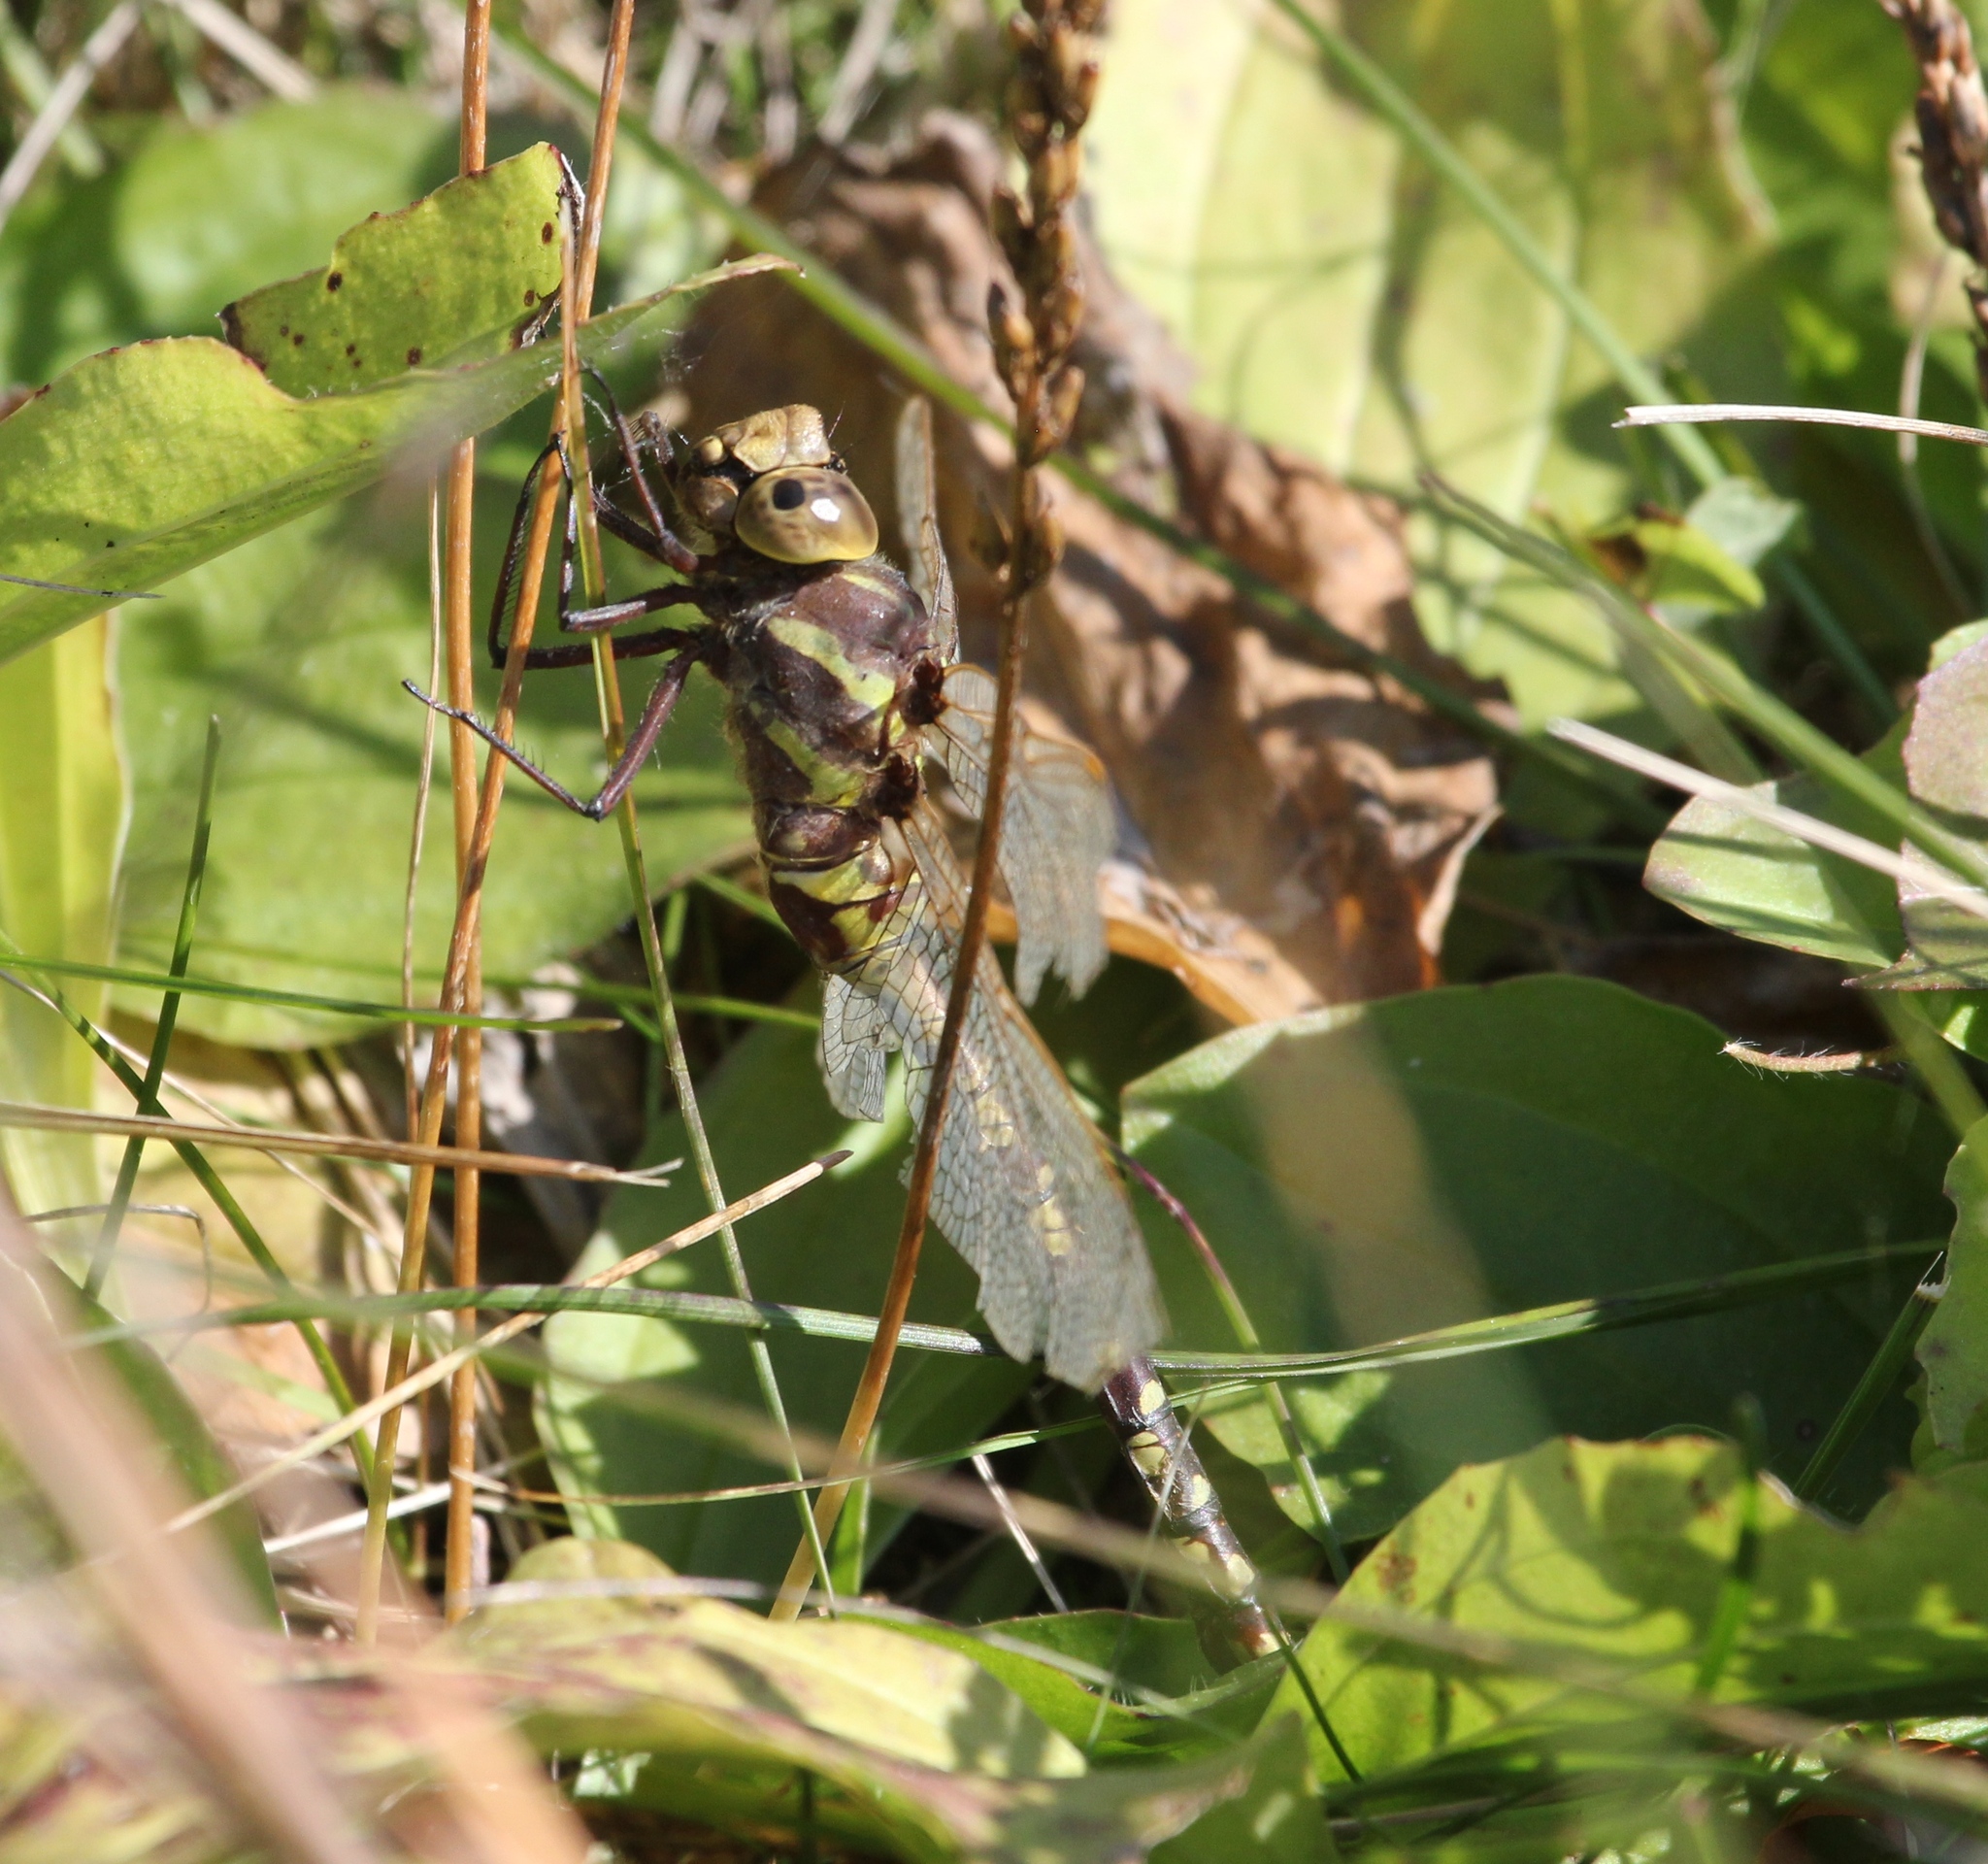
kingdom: Animalia
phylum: Arthropoda
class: Insecta
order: Odonata
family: Aeshnidae
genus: Aeshna
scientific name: Aeshna constricta
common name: Lance-tipped darner
